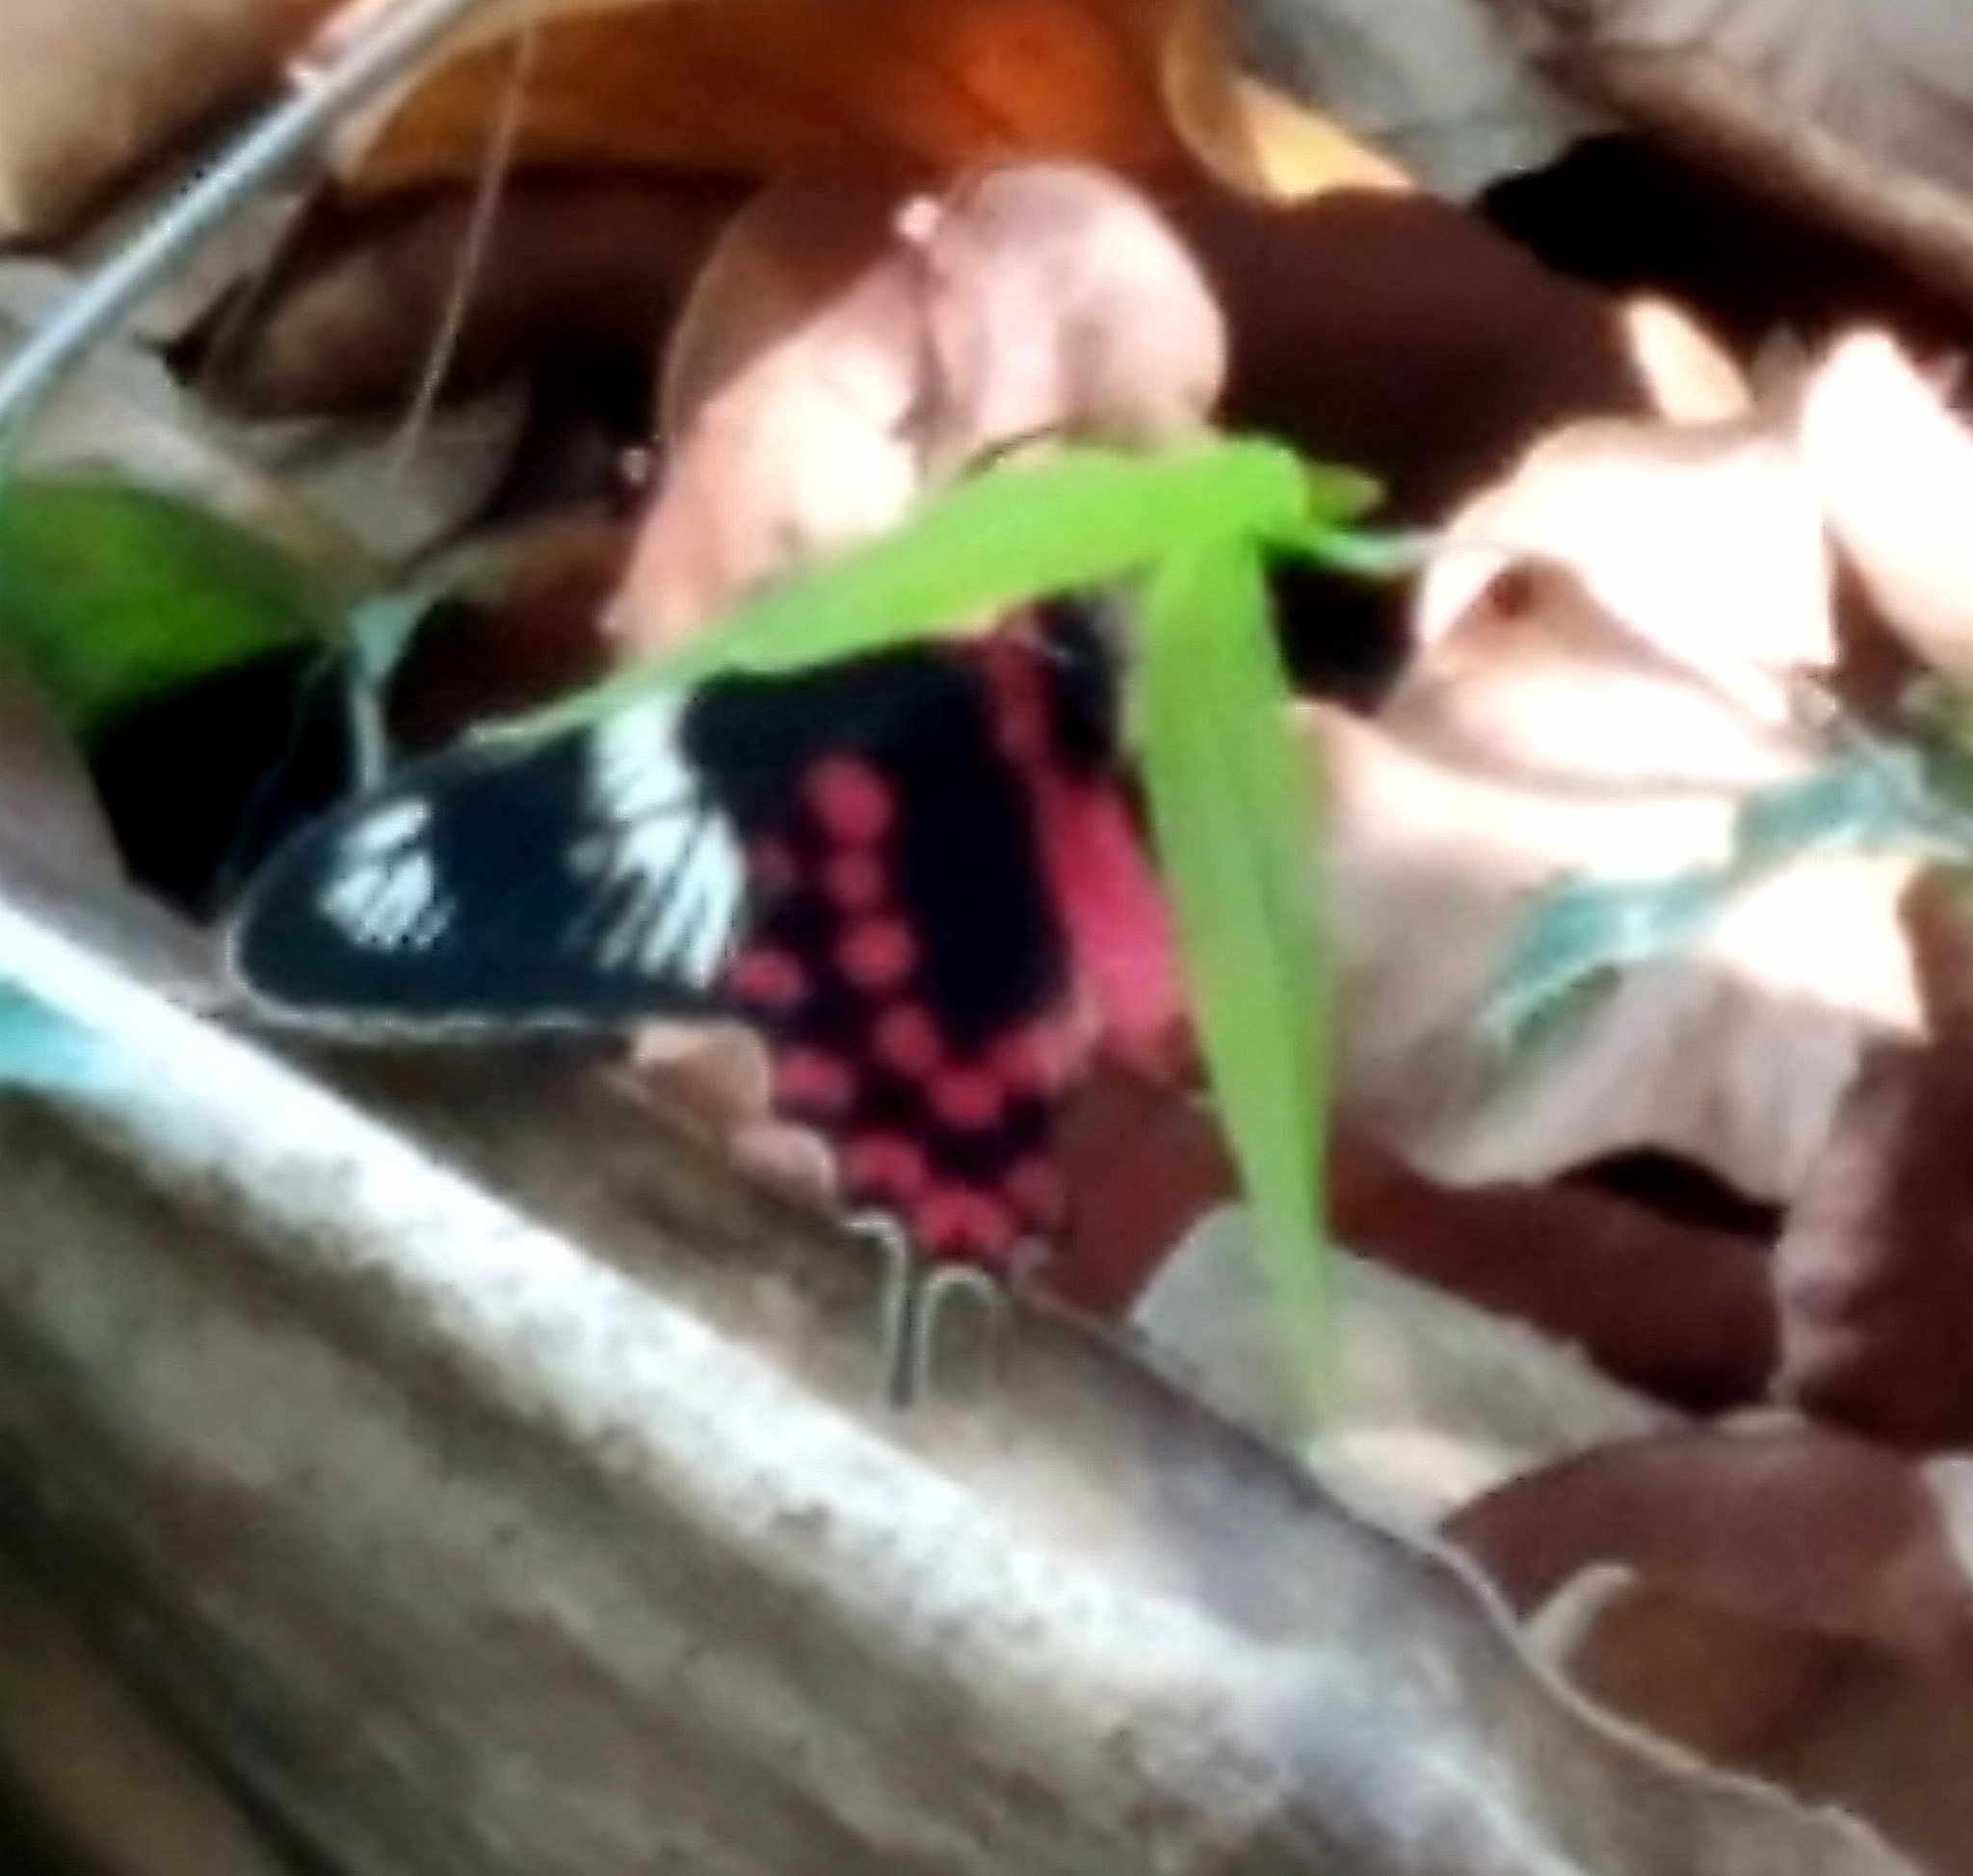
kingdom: Animalia
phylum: Arthropoda
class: Insecta
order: Lepidoptera
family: Papilionidae
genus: Pachliopta
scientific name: Pachliopta hector
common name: Crimson rose
